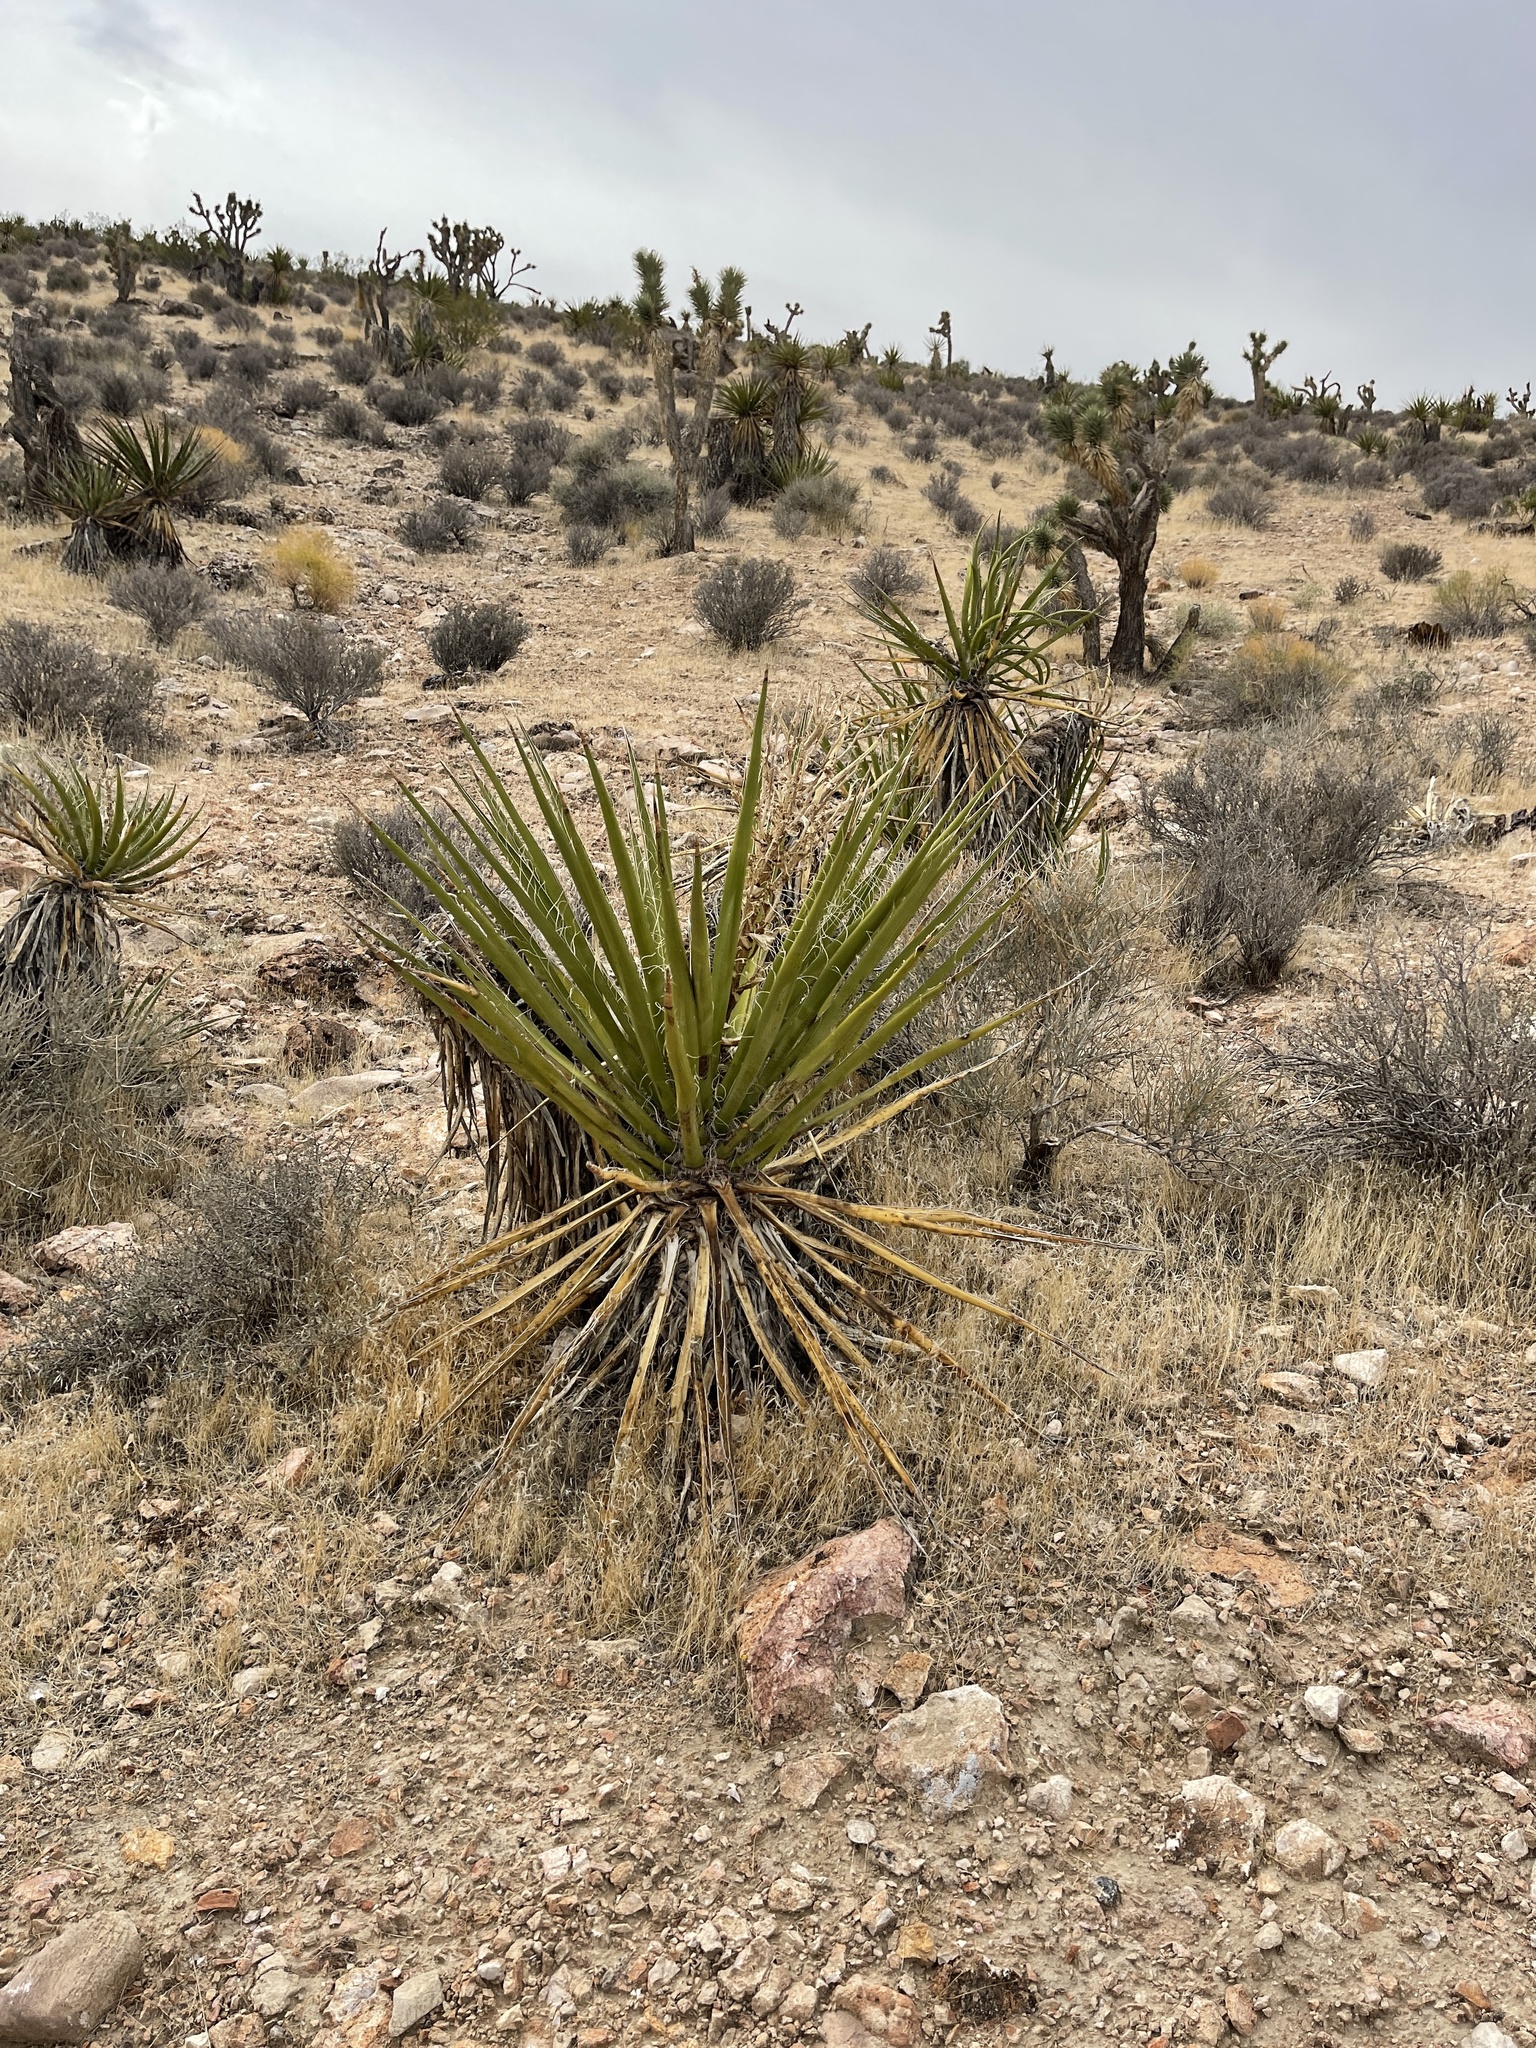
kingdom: Plantae
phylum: Tracheophyta
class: Liliopsida
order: Asparagales
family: Asparagaceae
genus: Yucca
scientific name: Yucca schidigera
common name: Mojave yucca
